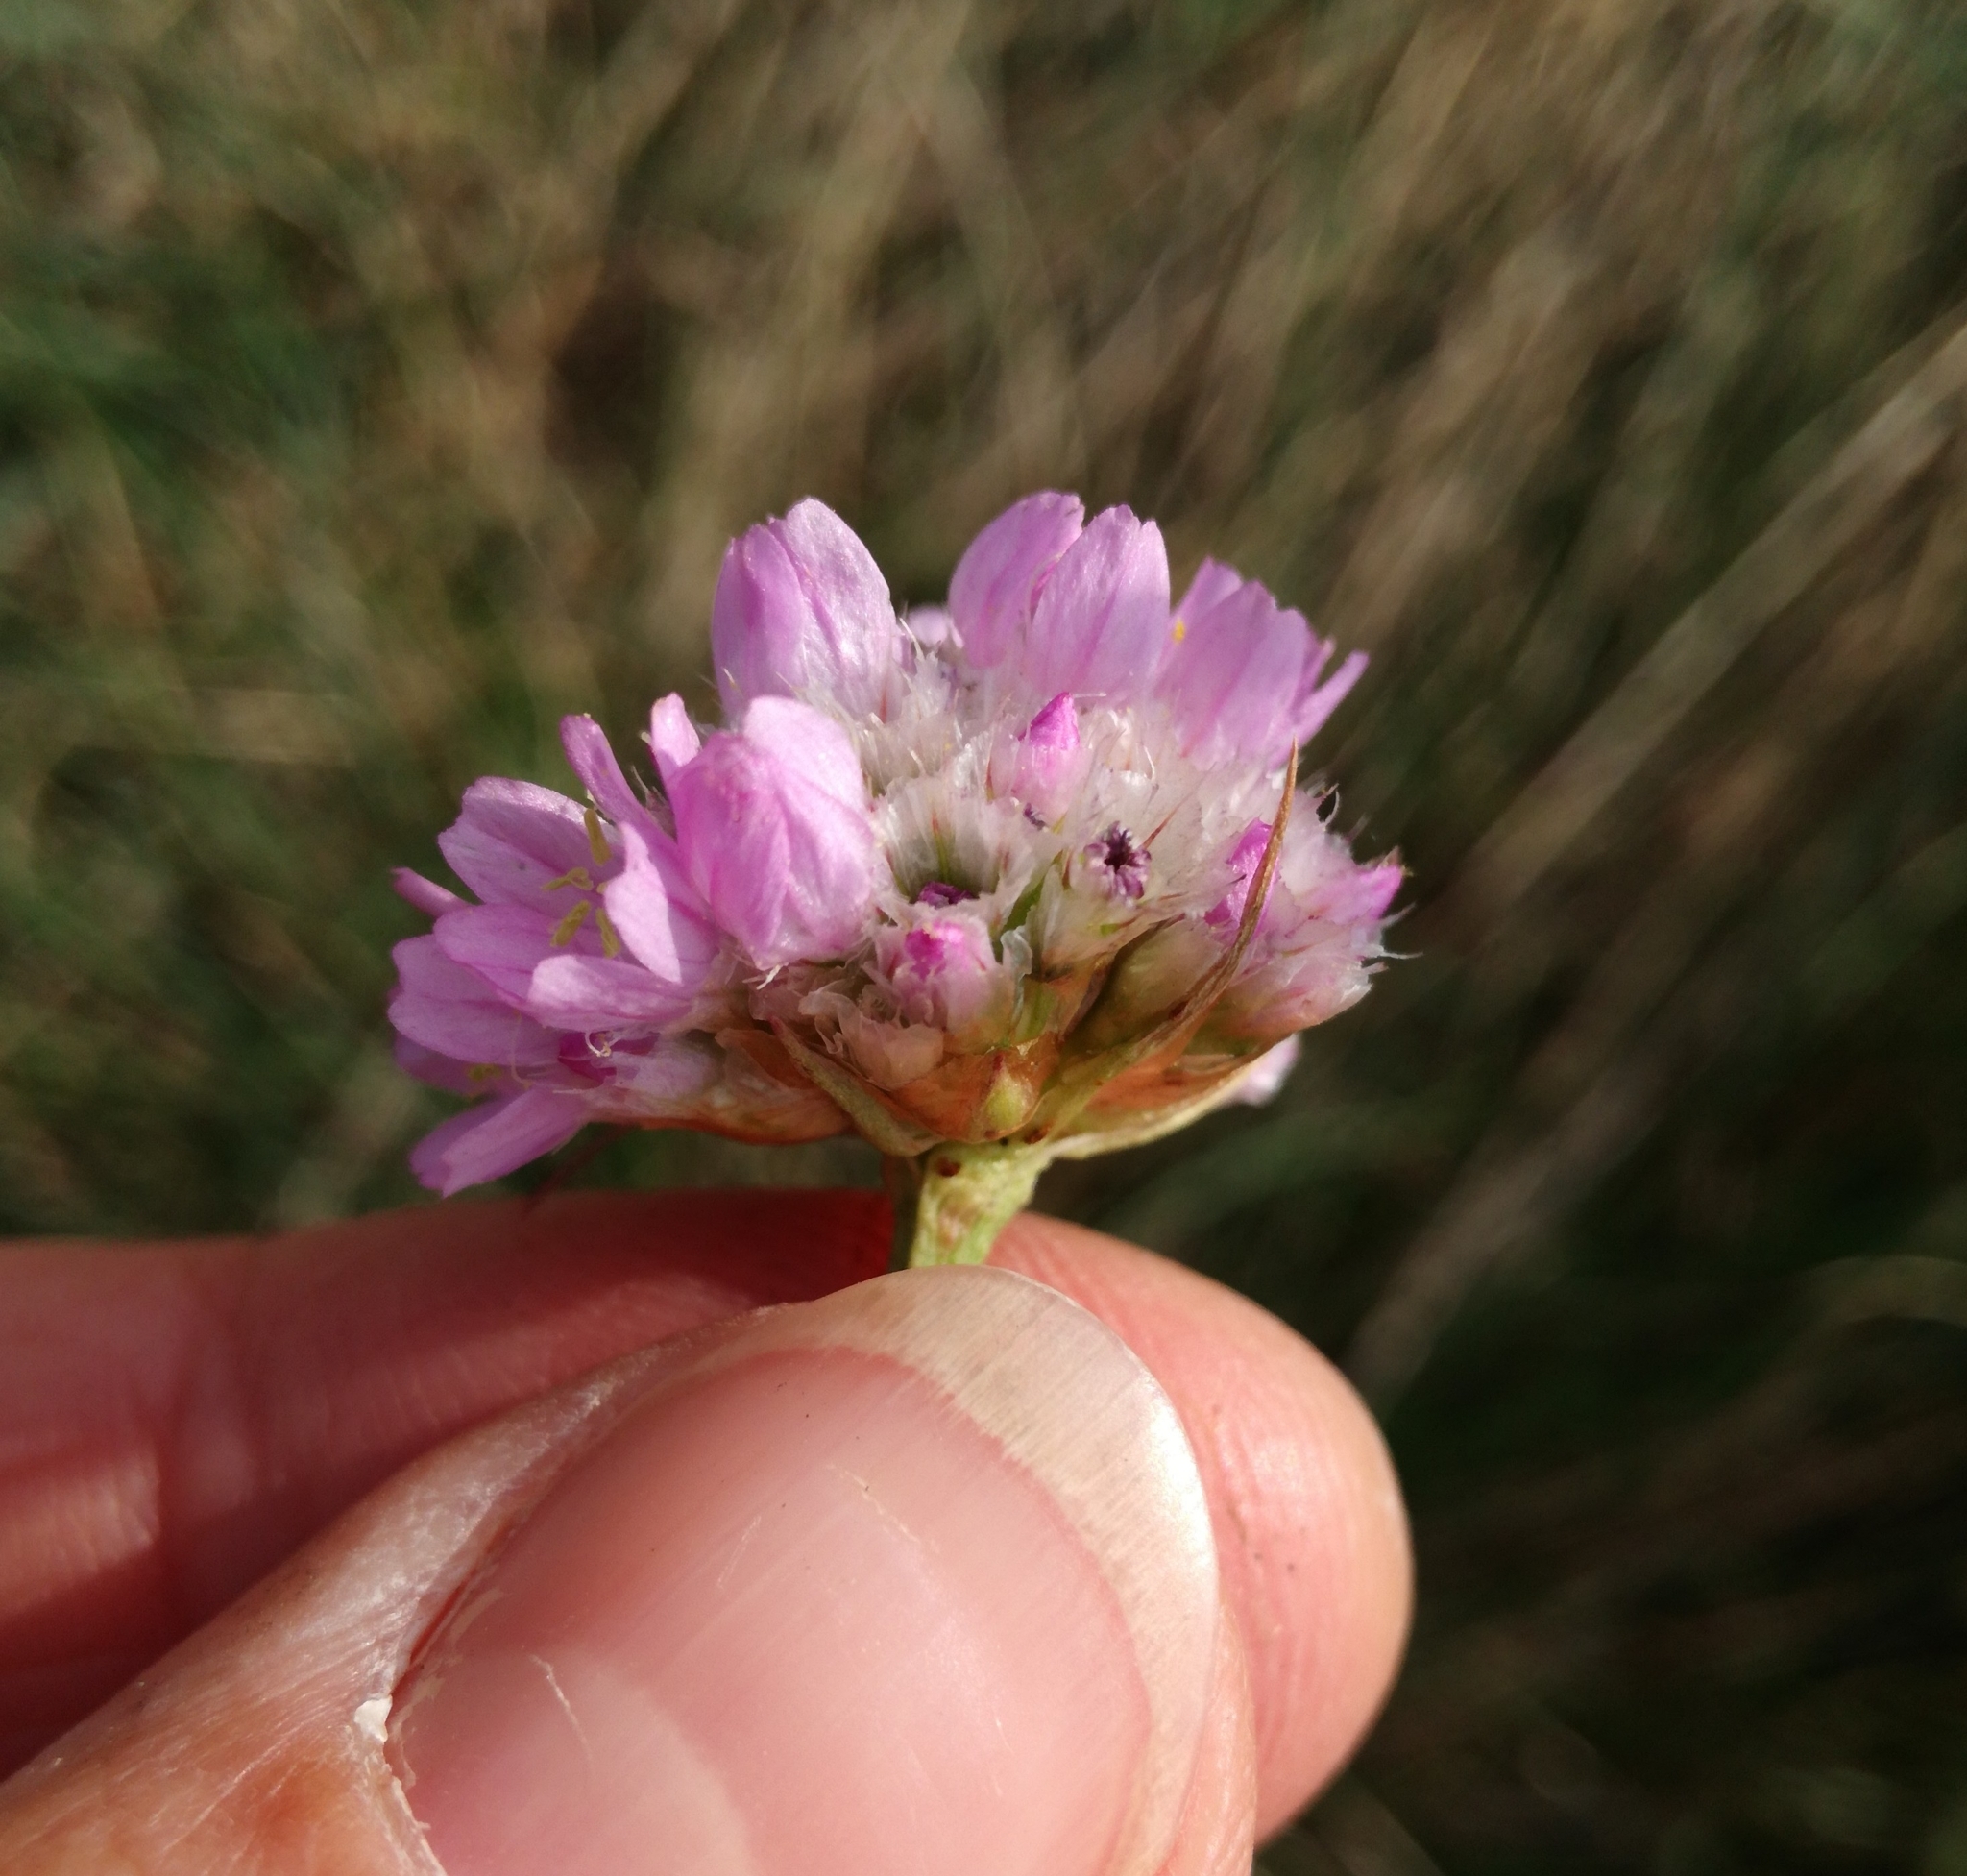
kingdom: Plantae
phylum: Tracheophyta
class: Magnoliopsida
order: Caryophyllales
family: Plumbaginaceae
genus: Armeria
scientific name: Armeria maritima
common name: Thrift
